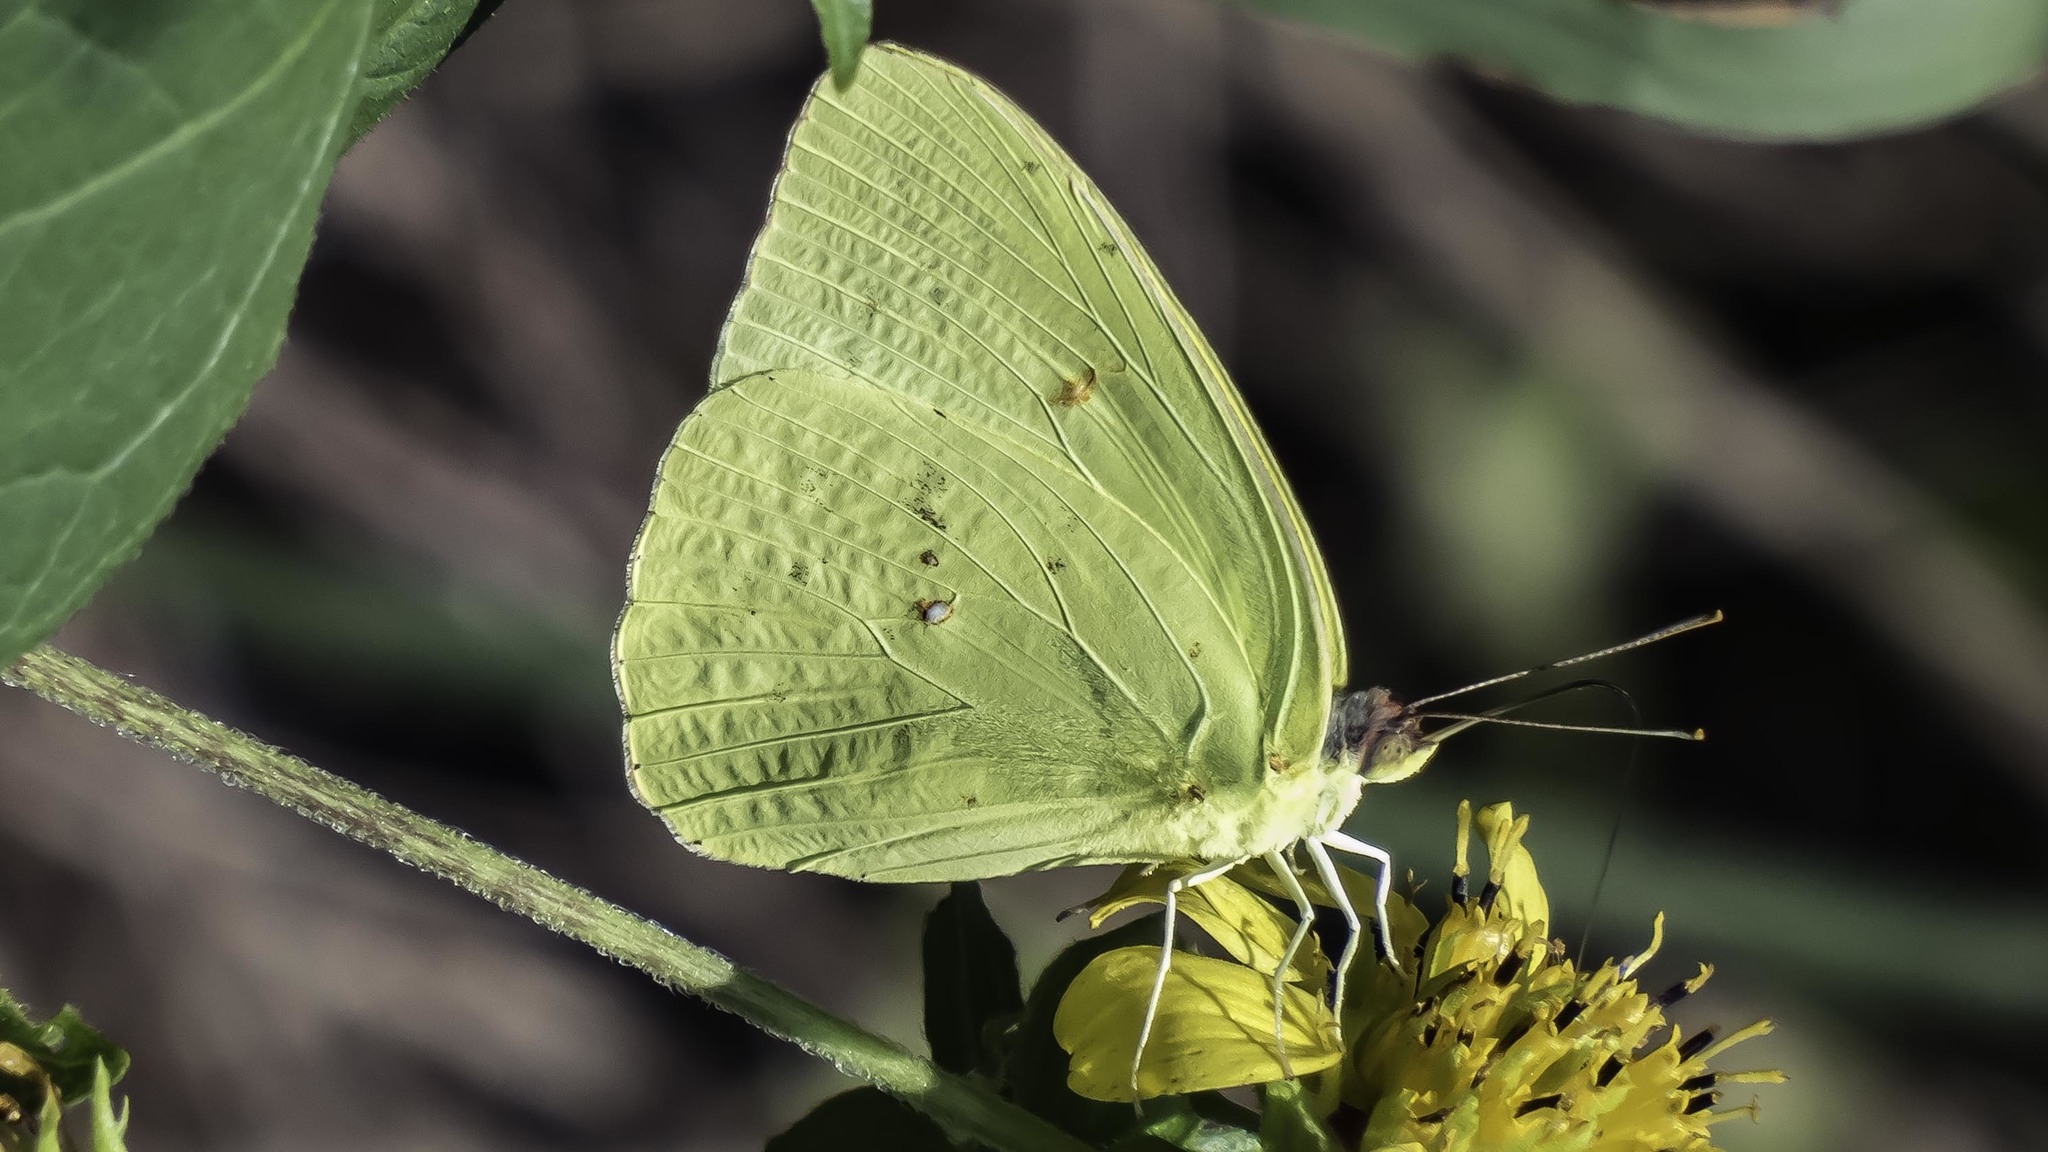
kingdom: Animalia
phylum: Arthropoda
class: Insecta
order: Lepidoptera
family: Pieridae
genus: Phoebis
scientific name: Phoebis sennae
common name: Cloudless sulphur
